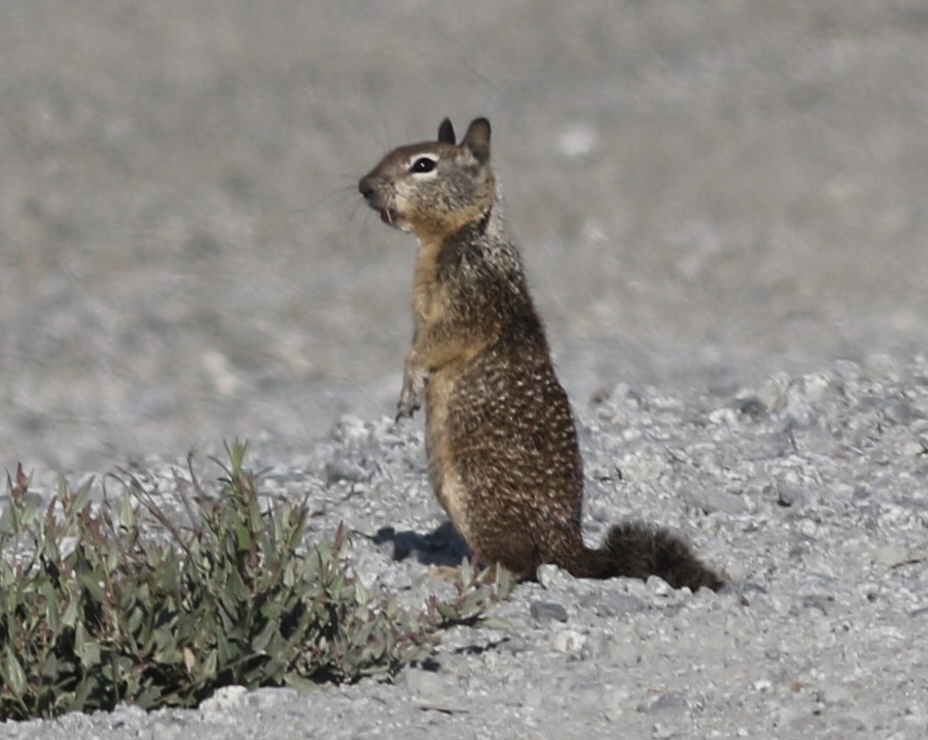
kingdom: Animalia
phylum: Chordata
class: Mammalia
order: Rodentia
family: Sciuridae
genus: Otospermophilus
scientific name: Otospermophilus beecheyi
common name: California ground squirrel
